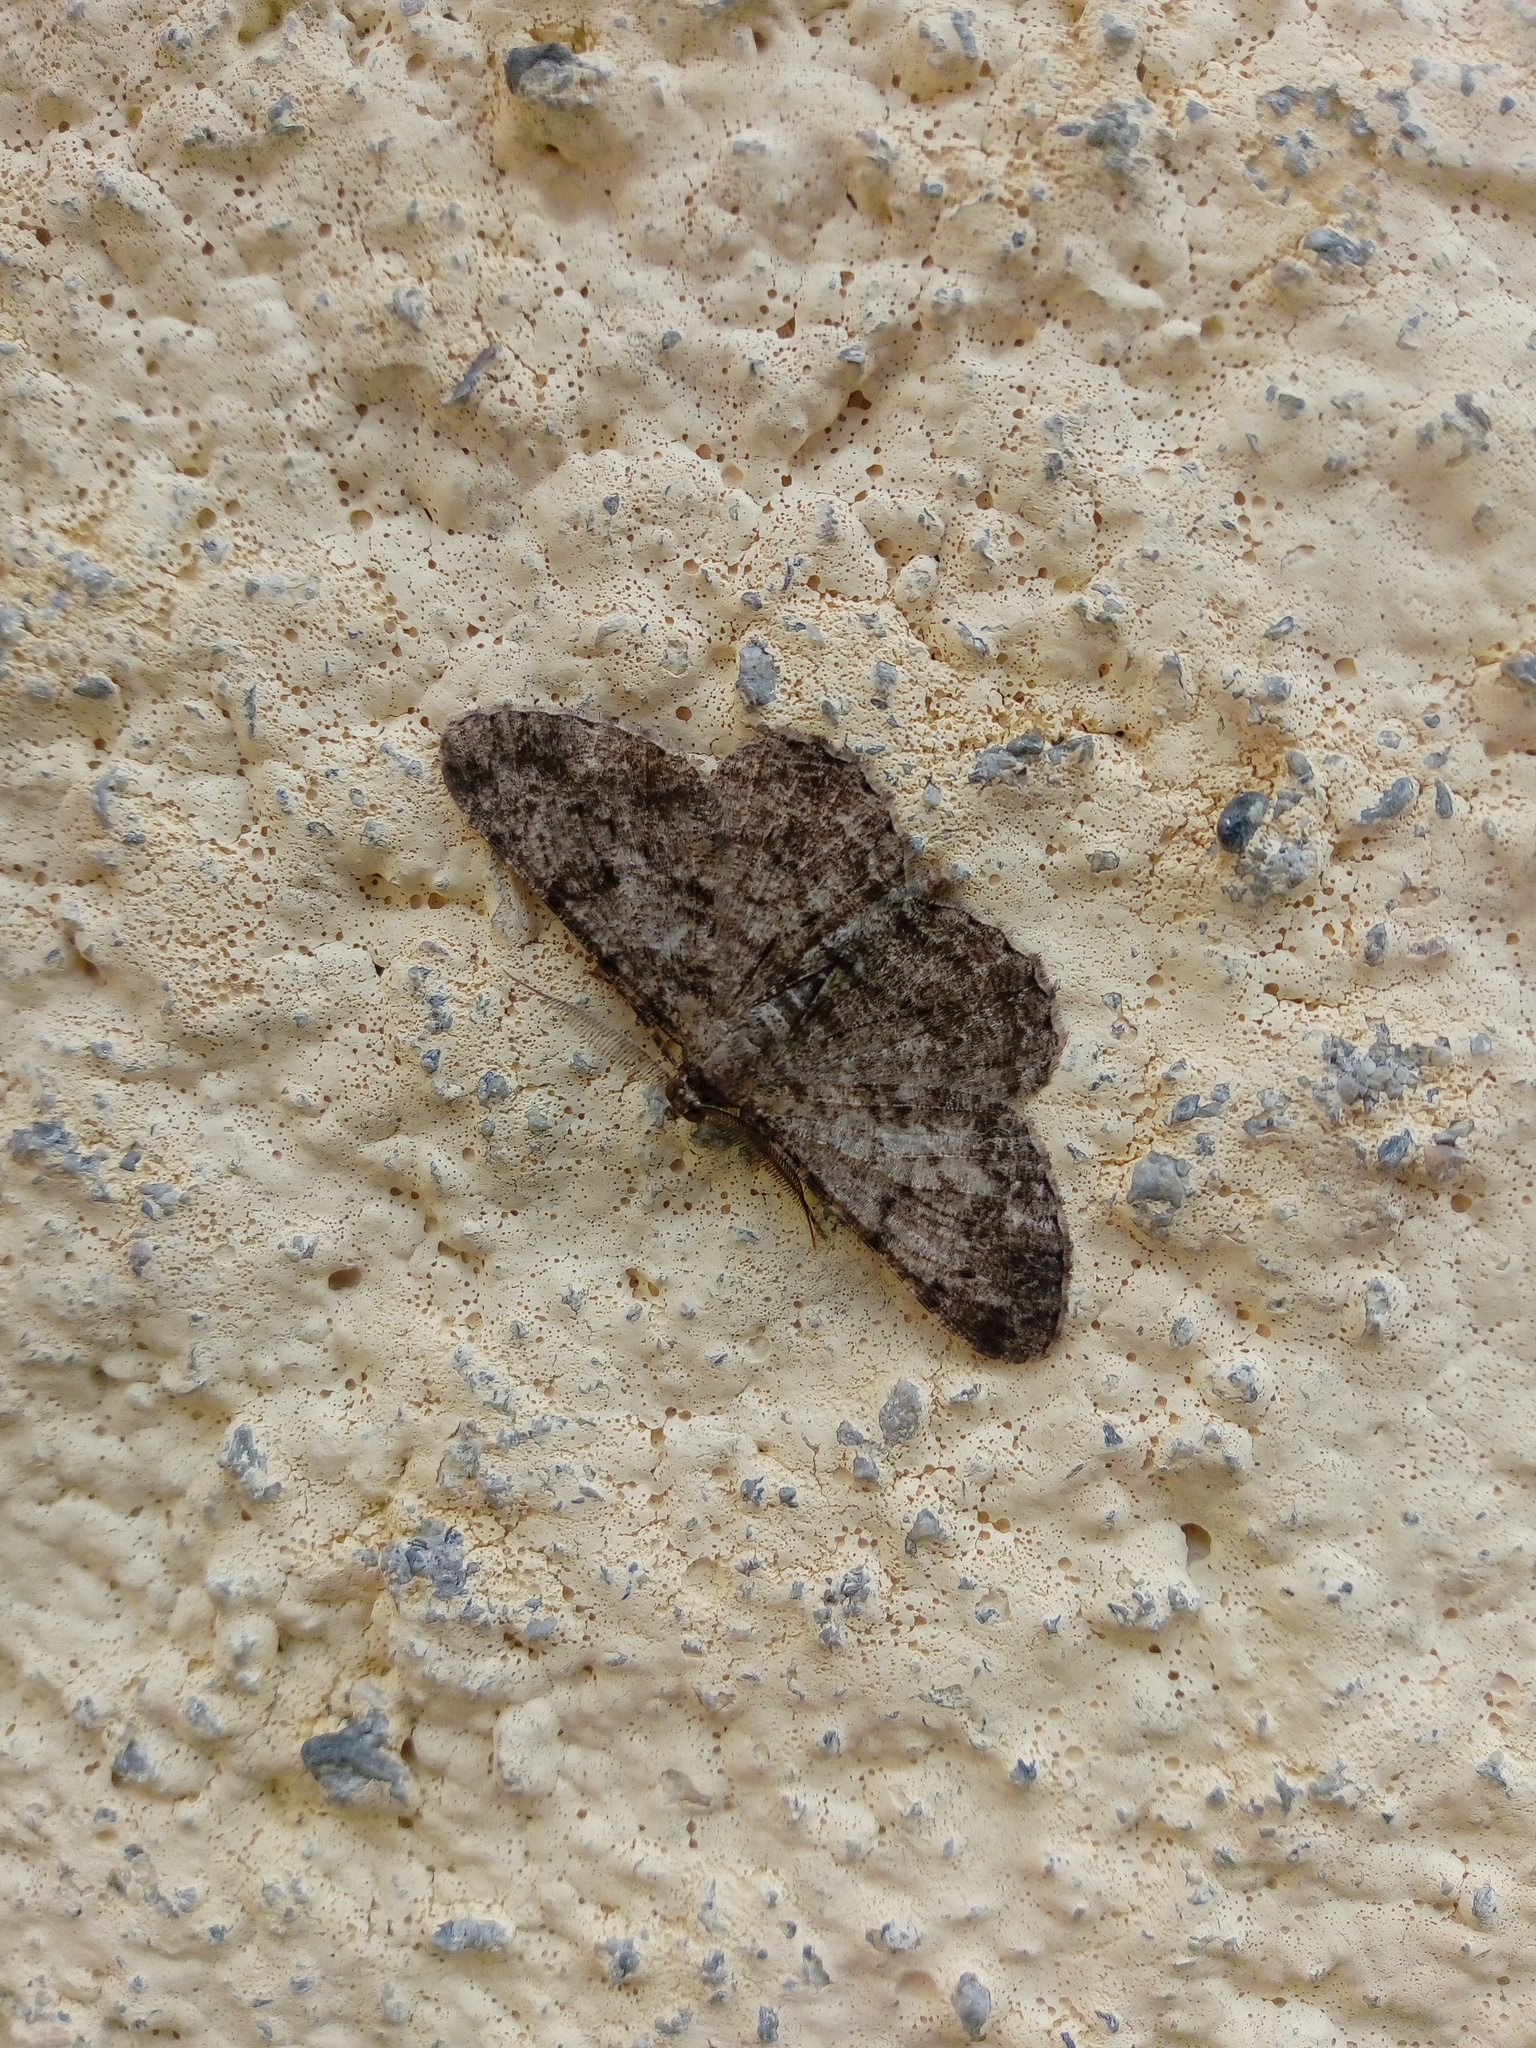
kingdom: Animalia
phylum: Arthropoda
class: Insecta
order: Lepidoptera
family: Geometridae
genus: Peribatodes
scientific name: Peribatodes rhomboidaria
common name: Willow beauty
